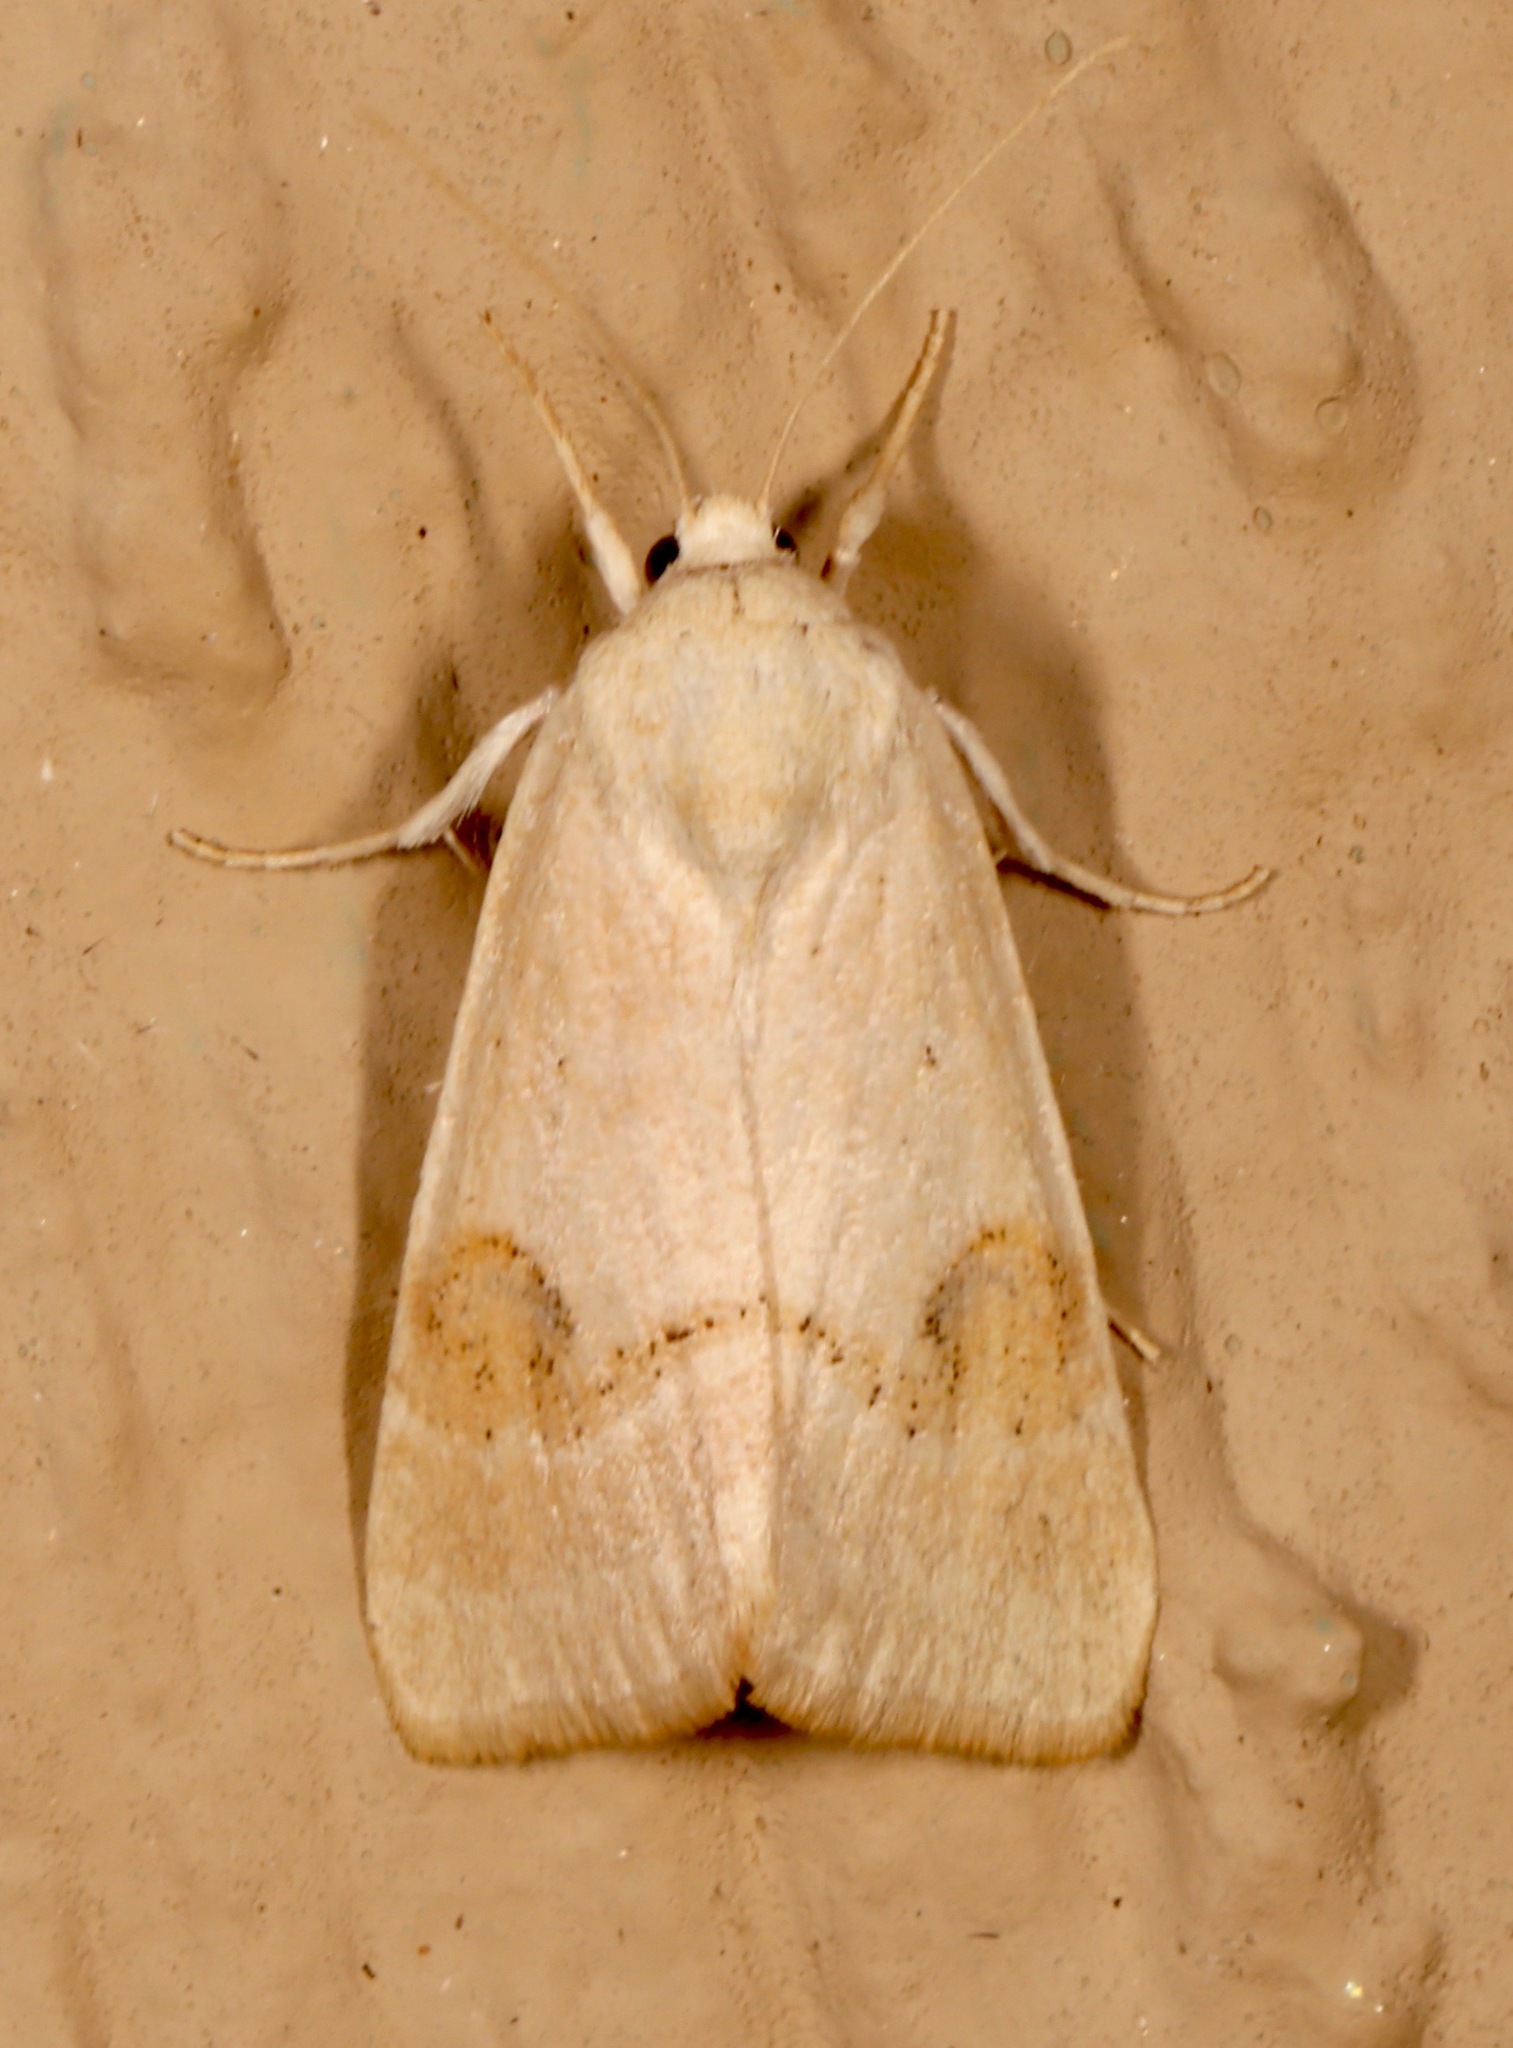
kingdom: Animalia
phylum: Arthropoda
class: Insecta
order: Lepidoptera
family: Noctuidae
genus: Trichocosmia
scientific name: Trichocosmia inornata
